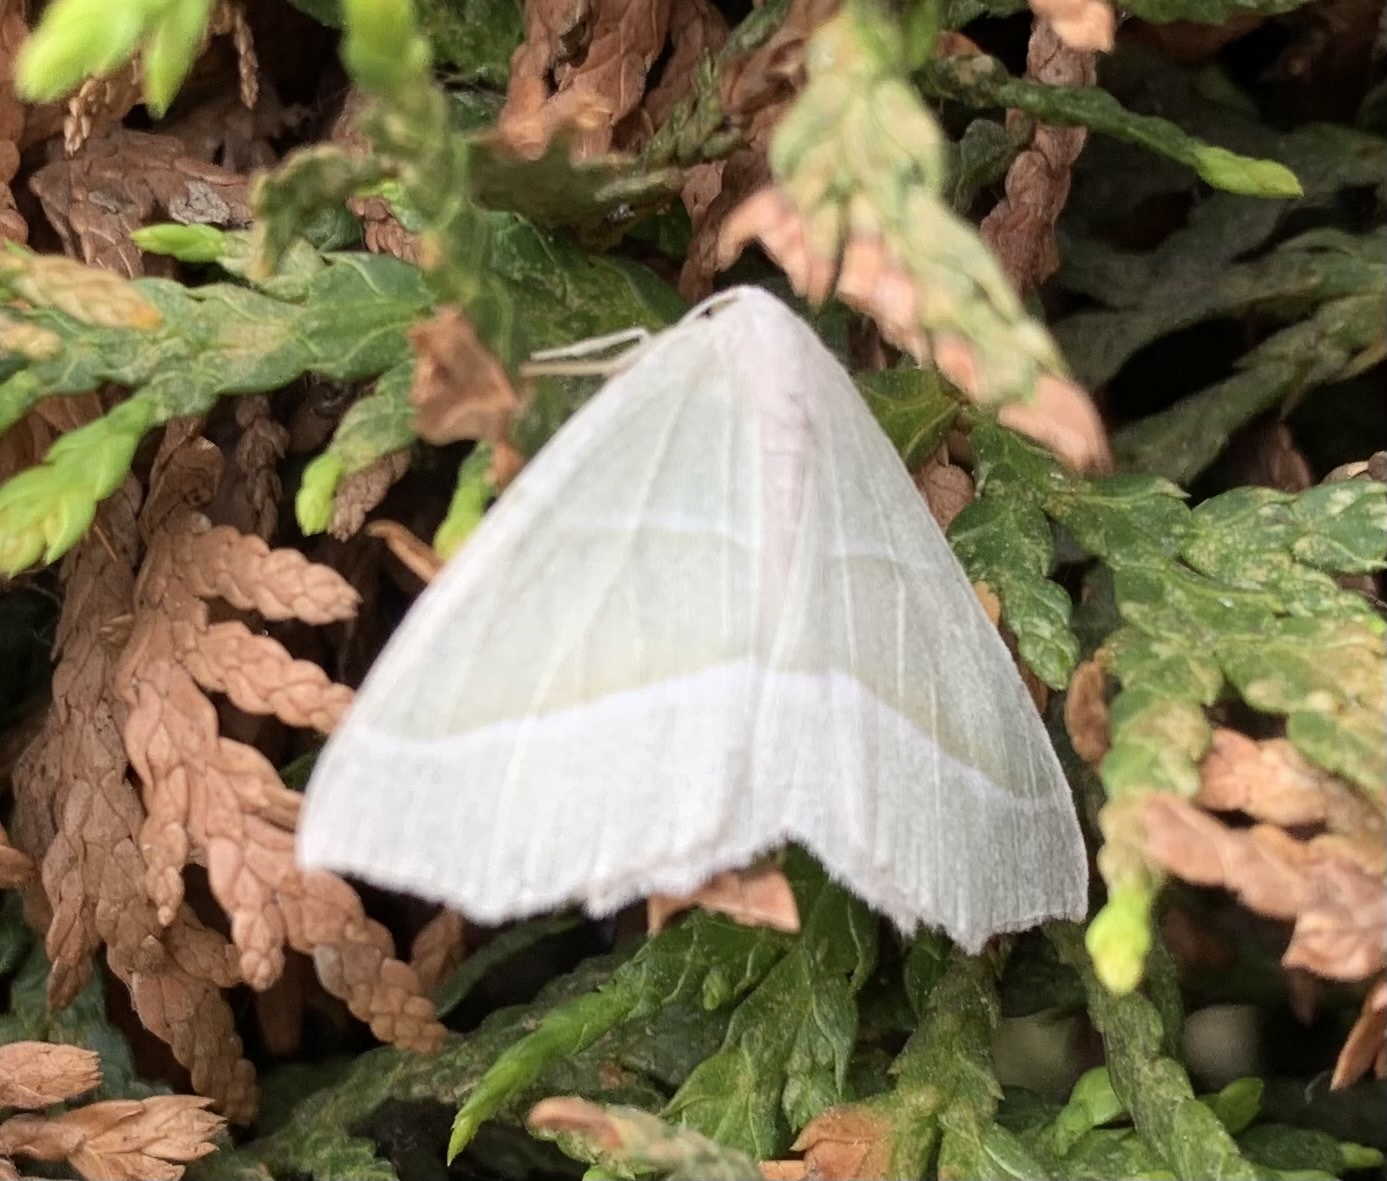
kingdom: Animalia
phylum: Arthropoda
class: Insecta
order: Lepidoptera
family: Geometridae
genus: Campaea
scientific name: Campaea margaritaria
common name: Light emerald
